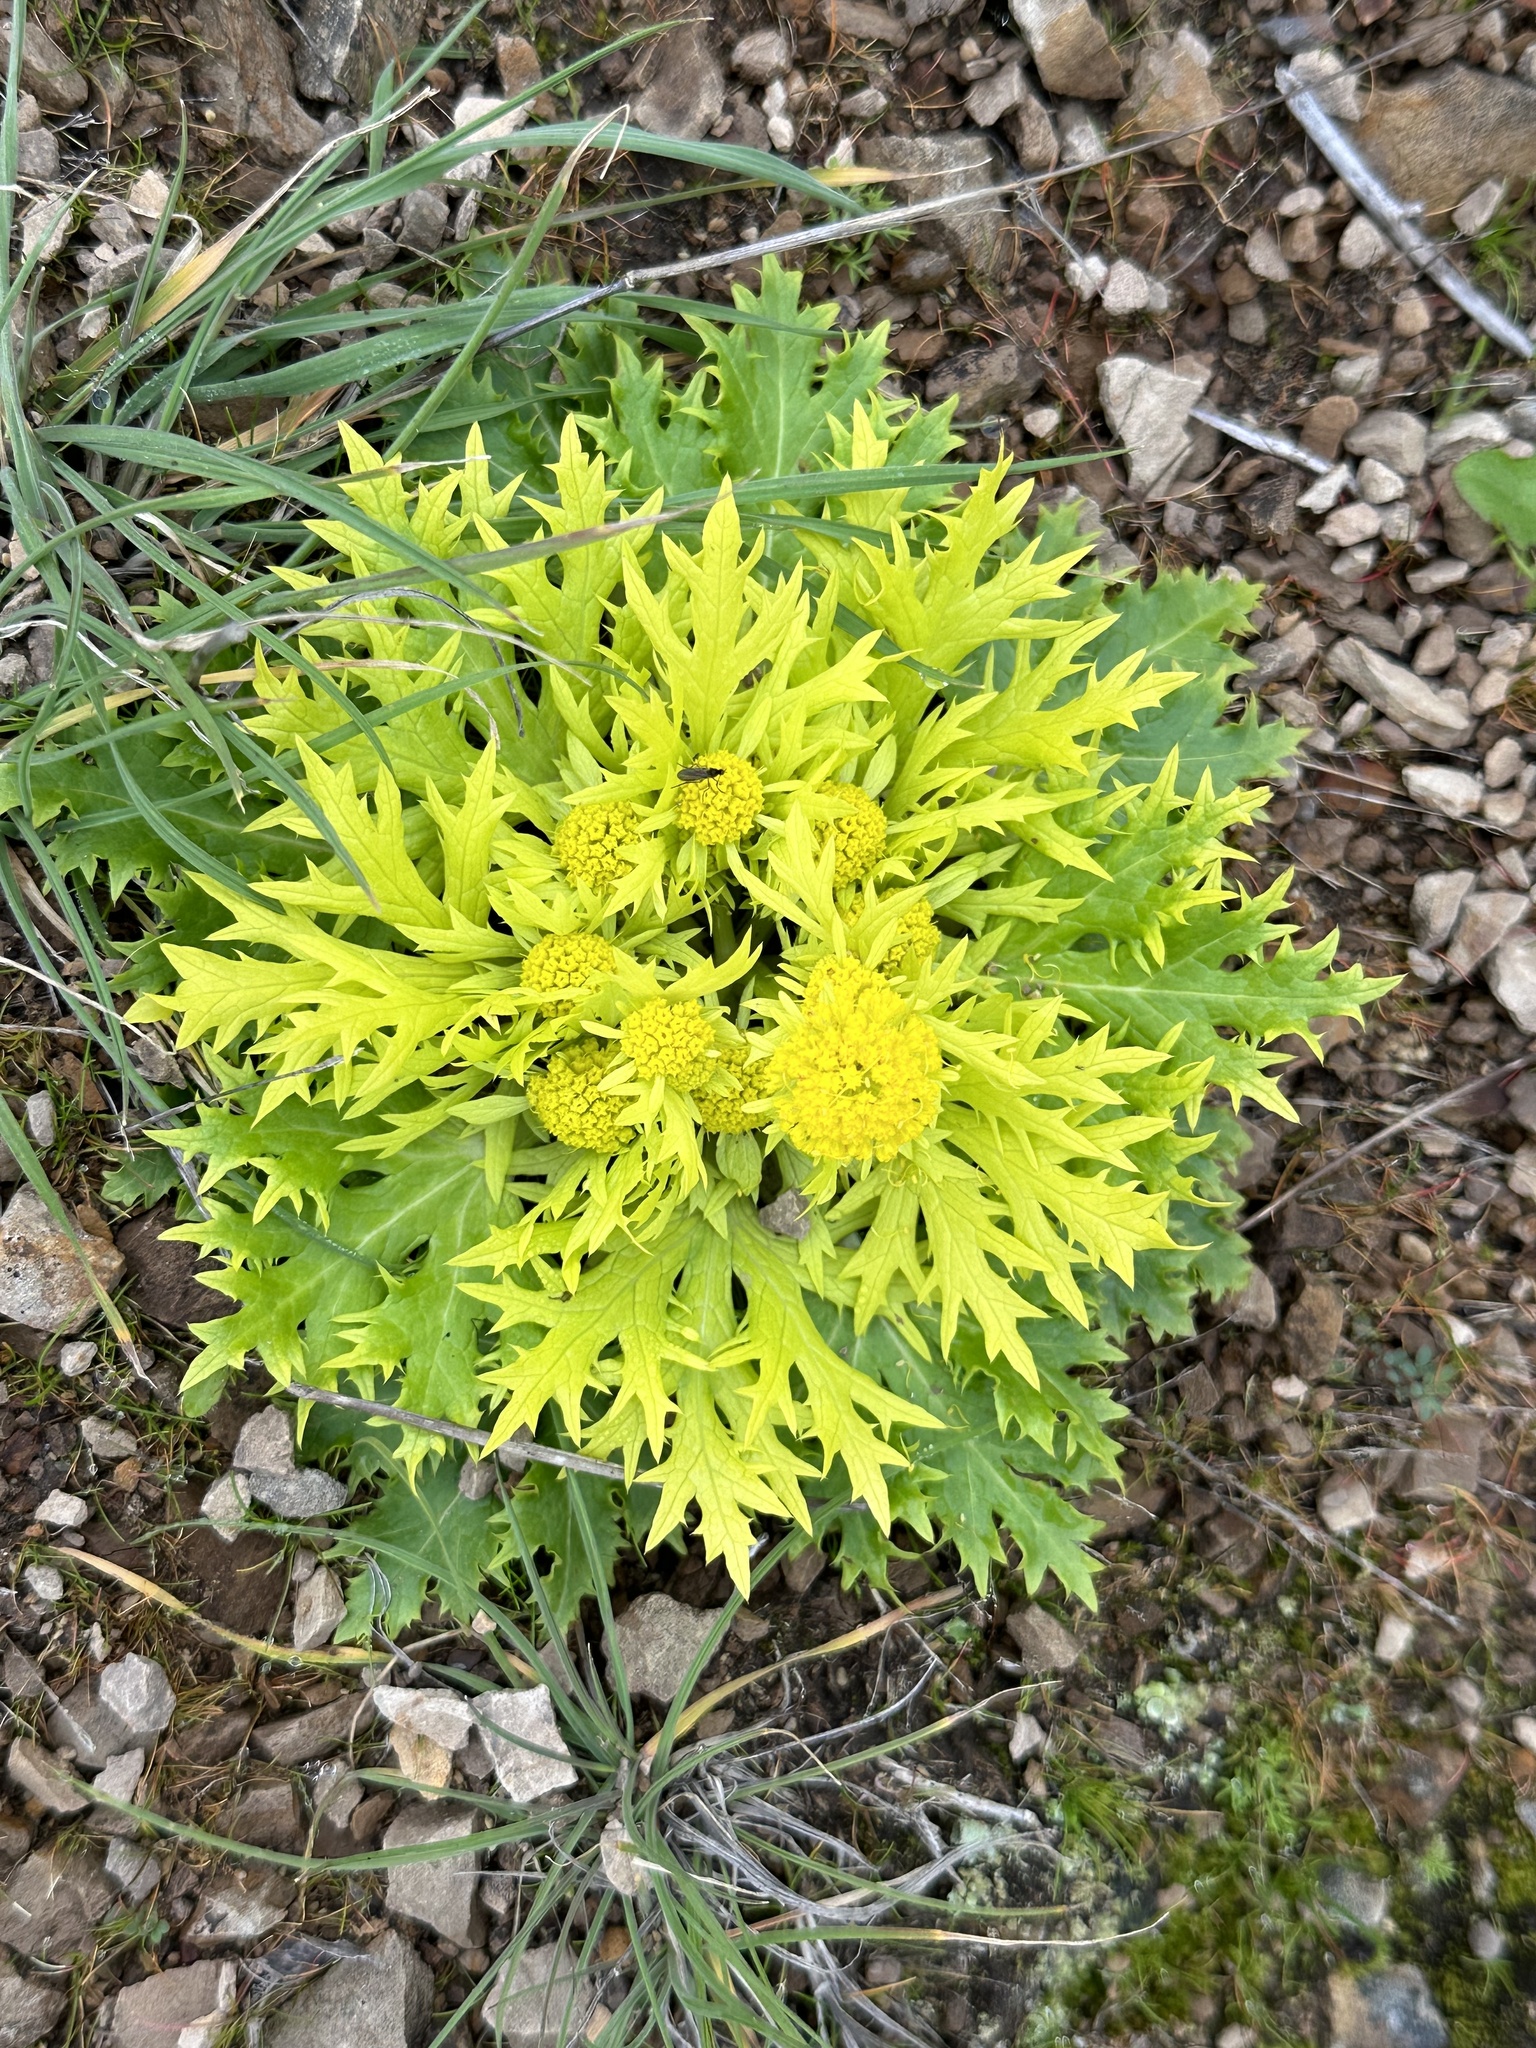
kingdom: Plantae
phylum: Tracheophyta
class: Magnoliopsida
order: Apiales
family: Apiaceae
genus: Sanicula
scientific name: Sanicula arctopoides
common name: Footsteps-of-spring
